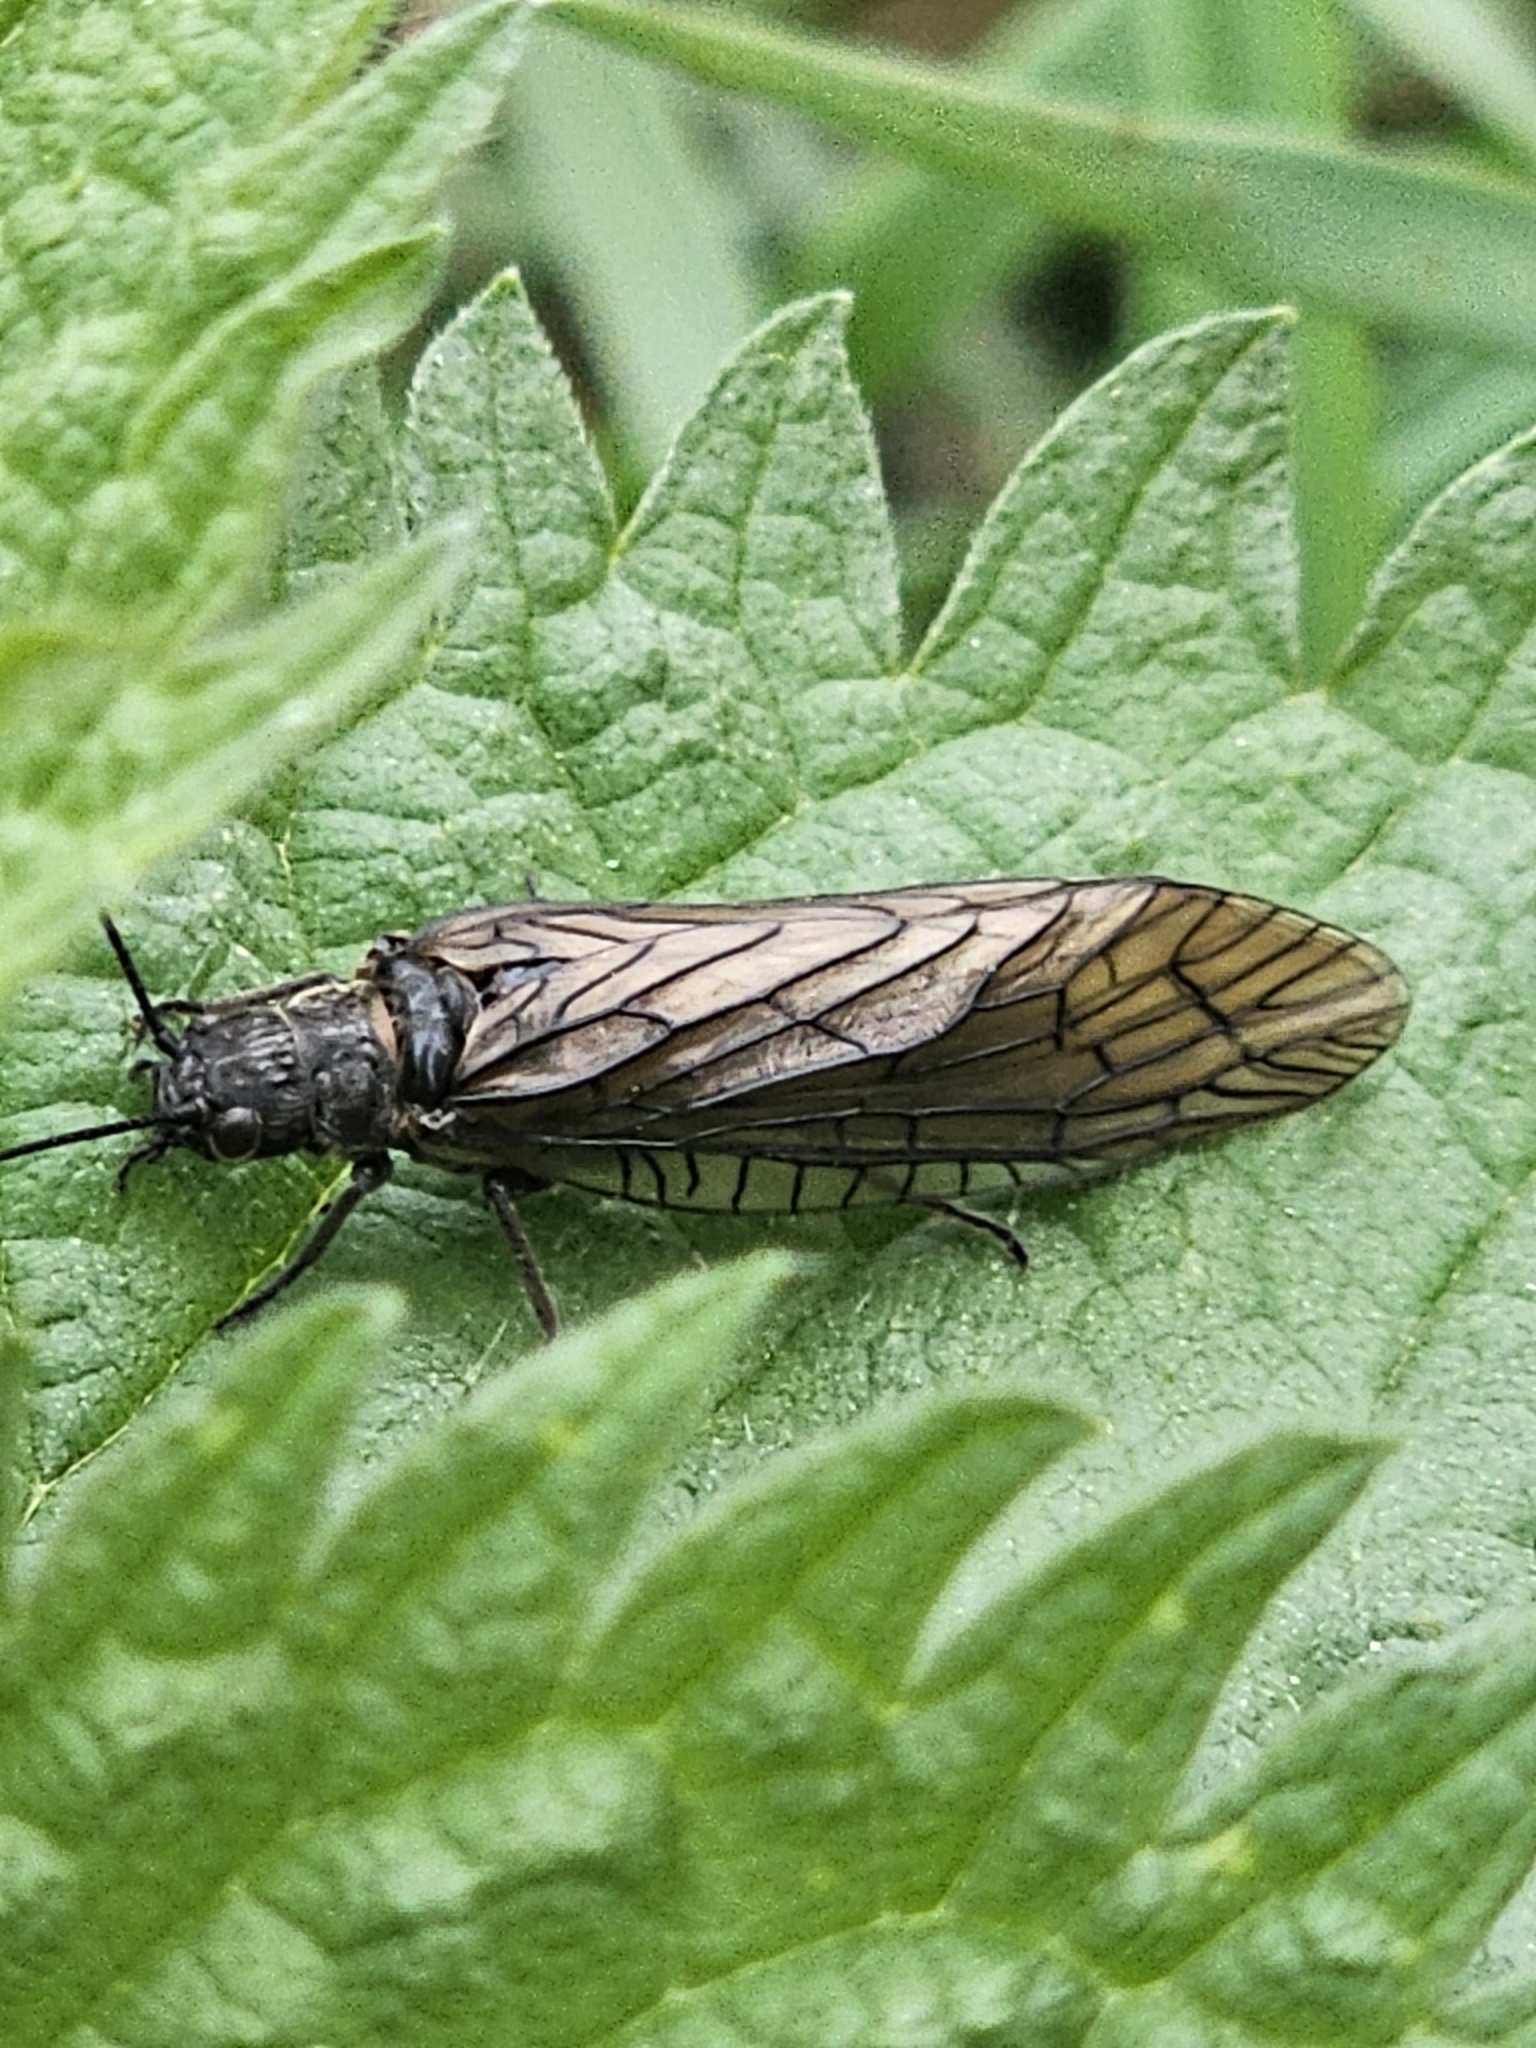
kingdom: Animalia
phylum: Arthropoda
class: Insecta
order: Megaloptera
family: Sialidae
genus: Sialis
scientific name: Sialis
